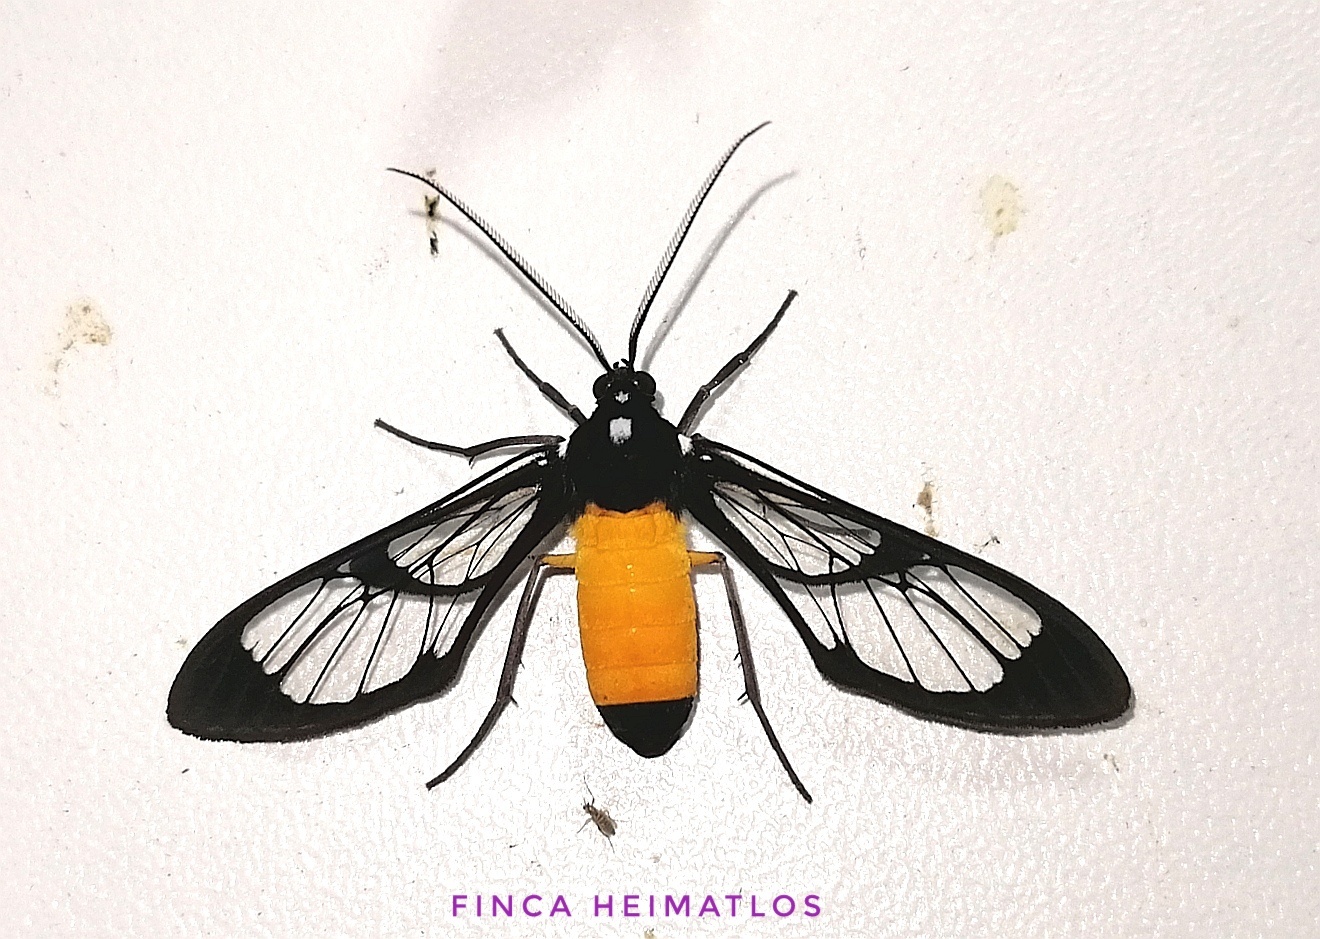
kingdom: Animalia
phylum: Arthropoda
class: Insecta
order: Lepidoptera
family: Erebidae
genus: Cosmosoma
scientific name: Cosmosoma stibosticta
